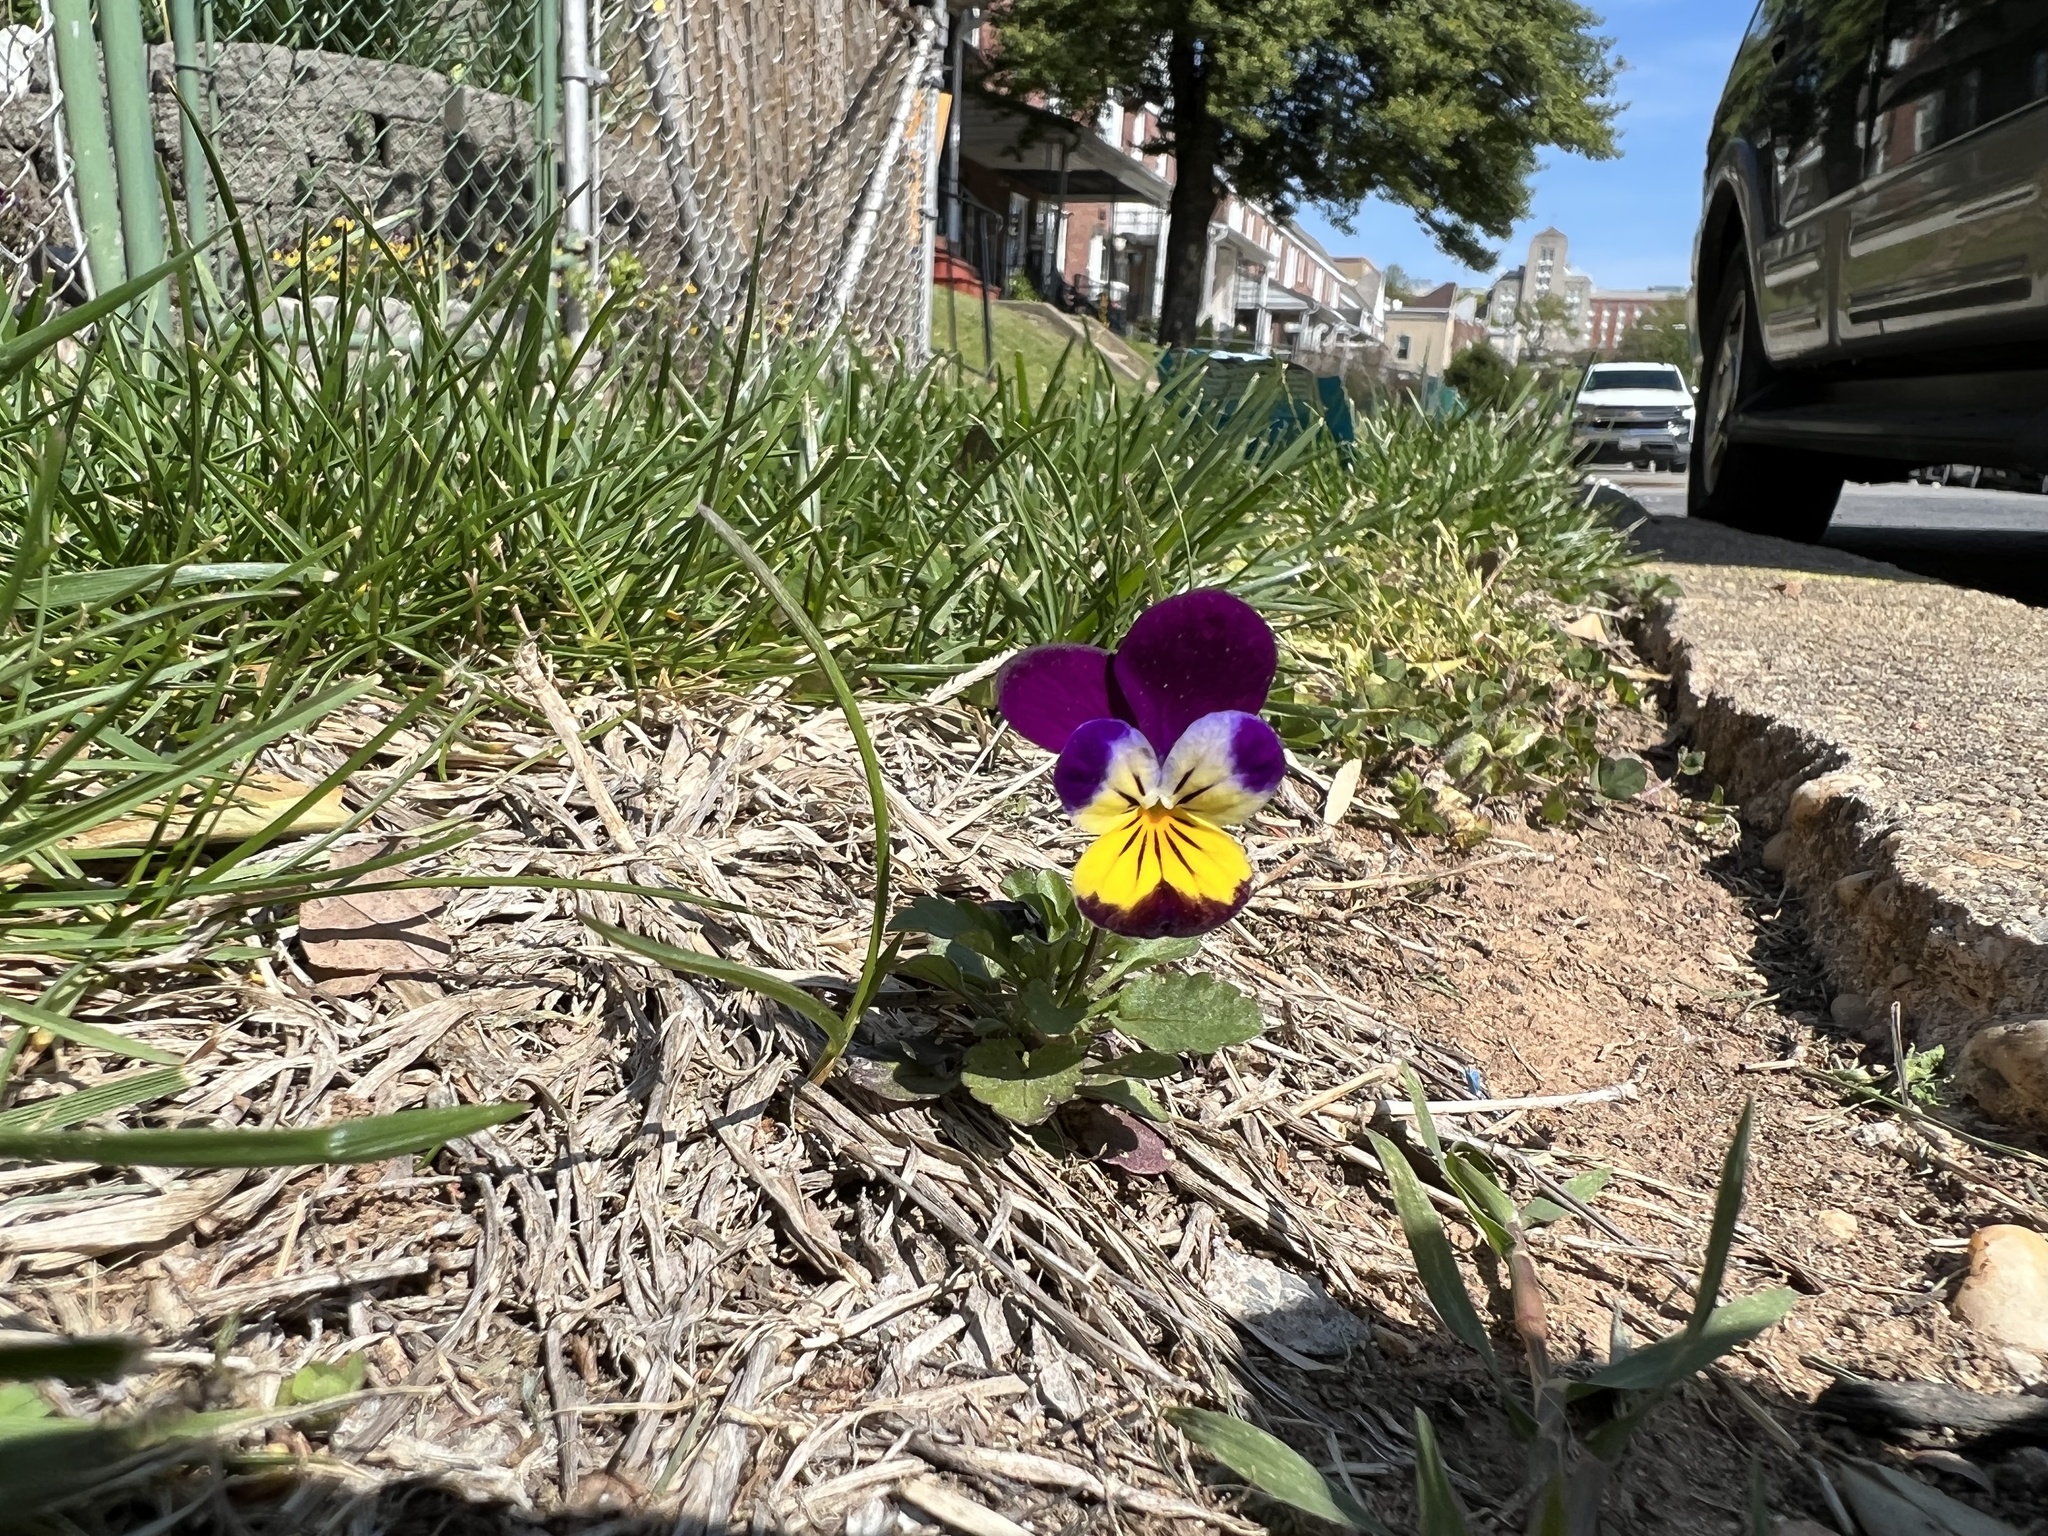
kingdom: Plantae
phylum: Tracheophyta
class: Magnoliopsida
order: Malpighiales
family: Violaceae
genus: Viola
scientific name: Viola williamsii
